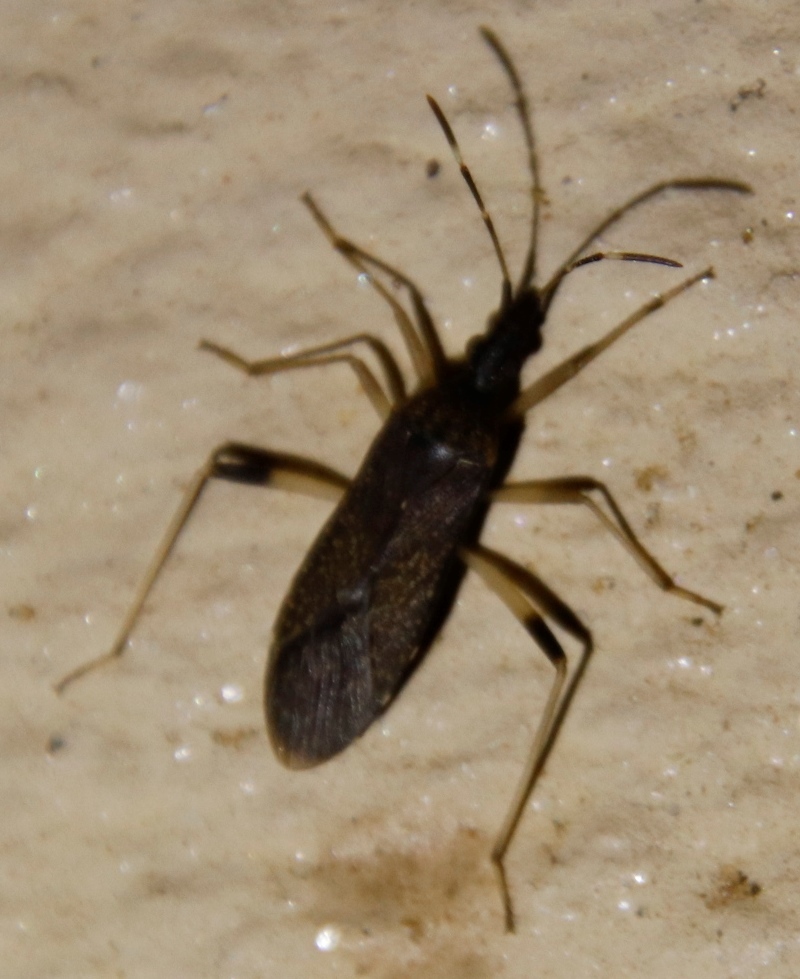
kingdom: Animalia
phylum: Arthropoda
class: Insecta
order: Hemiptera
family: Stenocephalidae
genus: Dicranocephalus
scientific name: Dicranocephalus schmitzi
